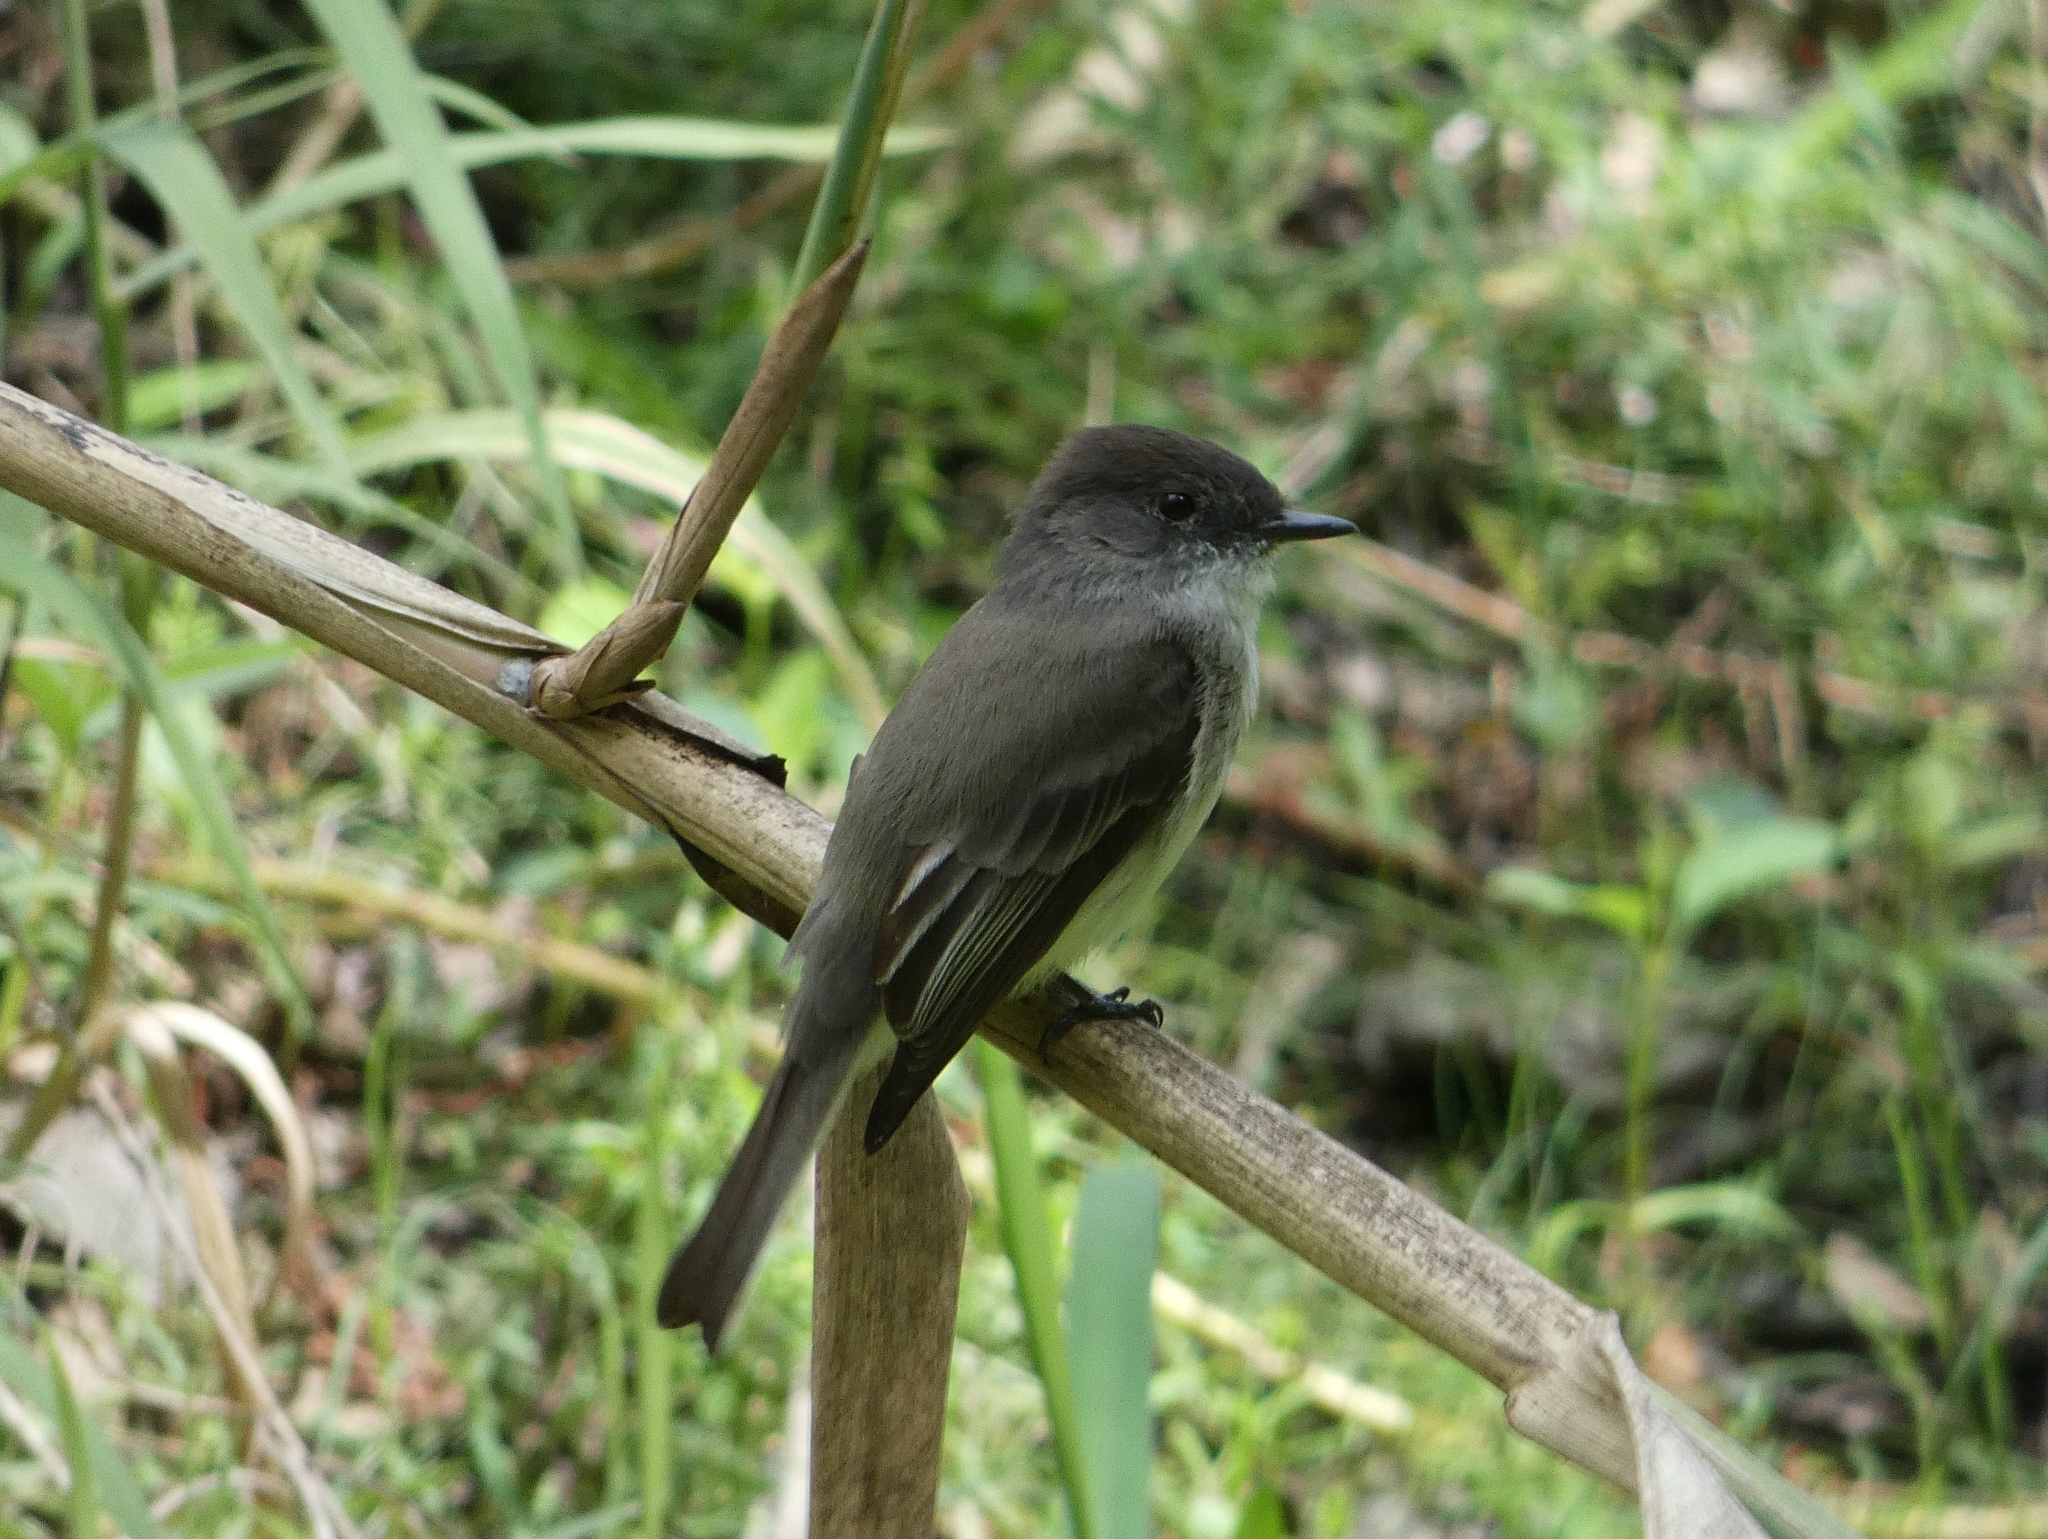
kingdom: Animalia
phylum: Chordata
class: Aves
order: Passeriformes
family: Tyrannidae
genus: Sayornis
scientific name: Sayornis phoebe
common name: Eastern phoebe
